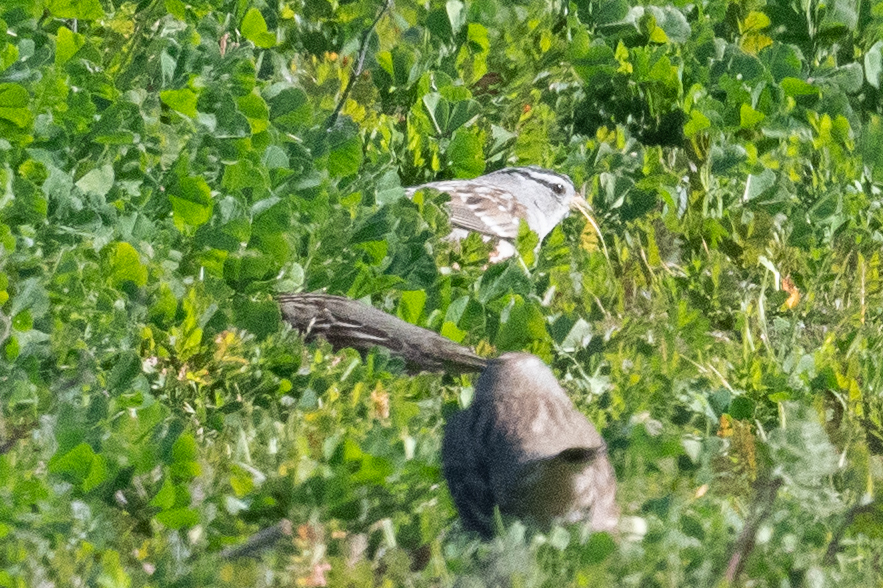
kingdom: Animalia
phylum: Chordata
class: Aves
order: Passeriformes
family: Passerellidae
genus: Zonotrichia
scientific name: Zonotrichia leucophrys
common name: White-crowned sparrow
